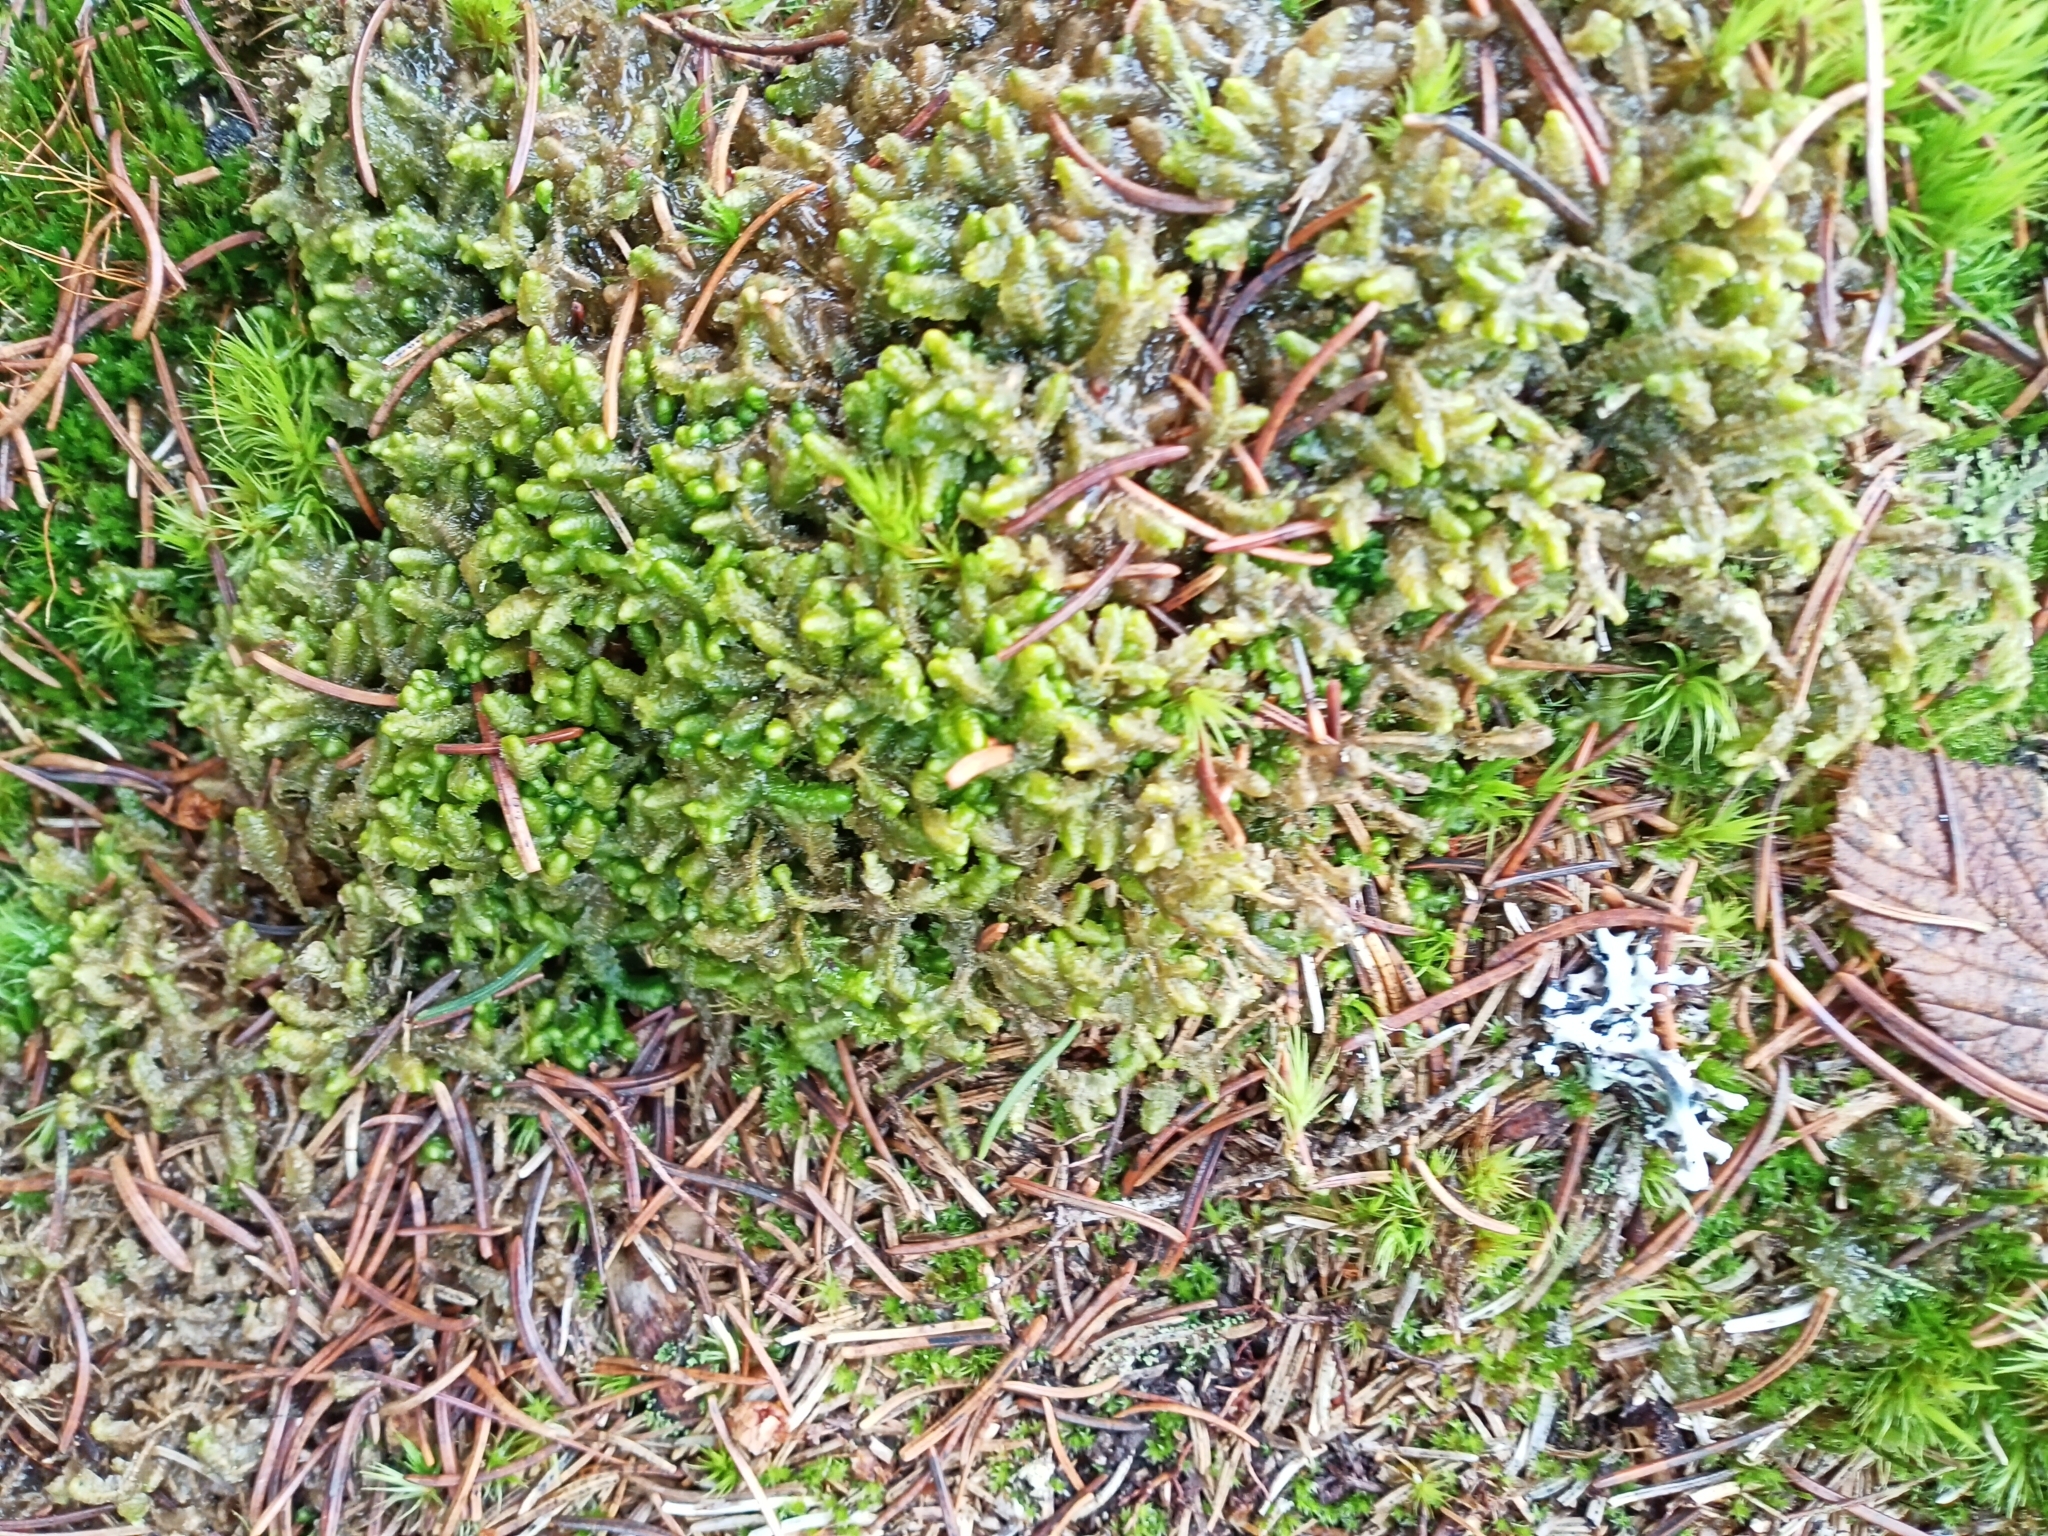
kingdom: Plantae
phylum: Marchantiophyta
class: Jungermanniopsida
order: Jungermanniales
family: Lepidoziaceae
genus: Bazzania
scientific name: Bazzania trilobata
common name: Three-lobed whipwort
